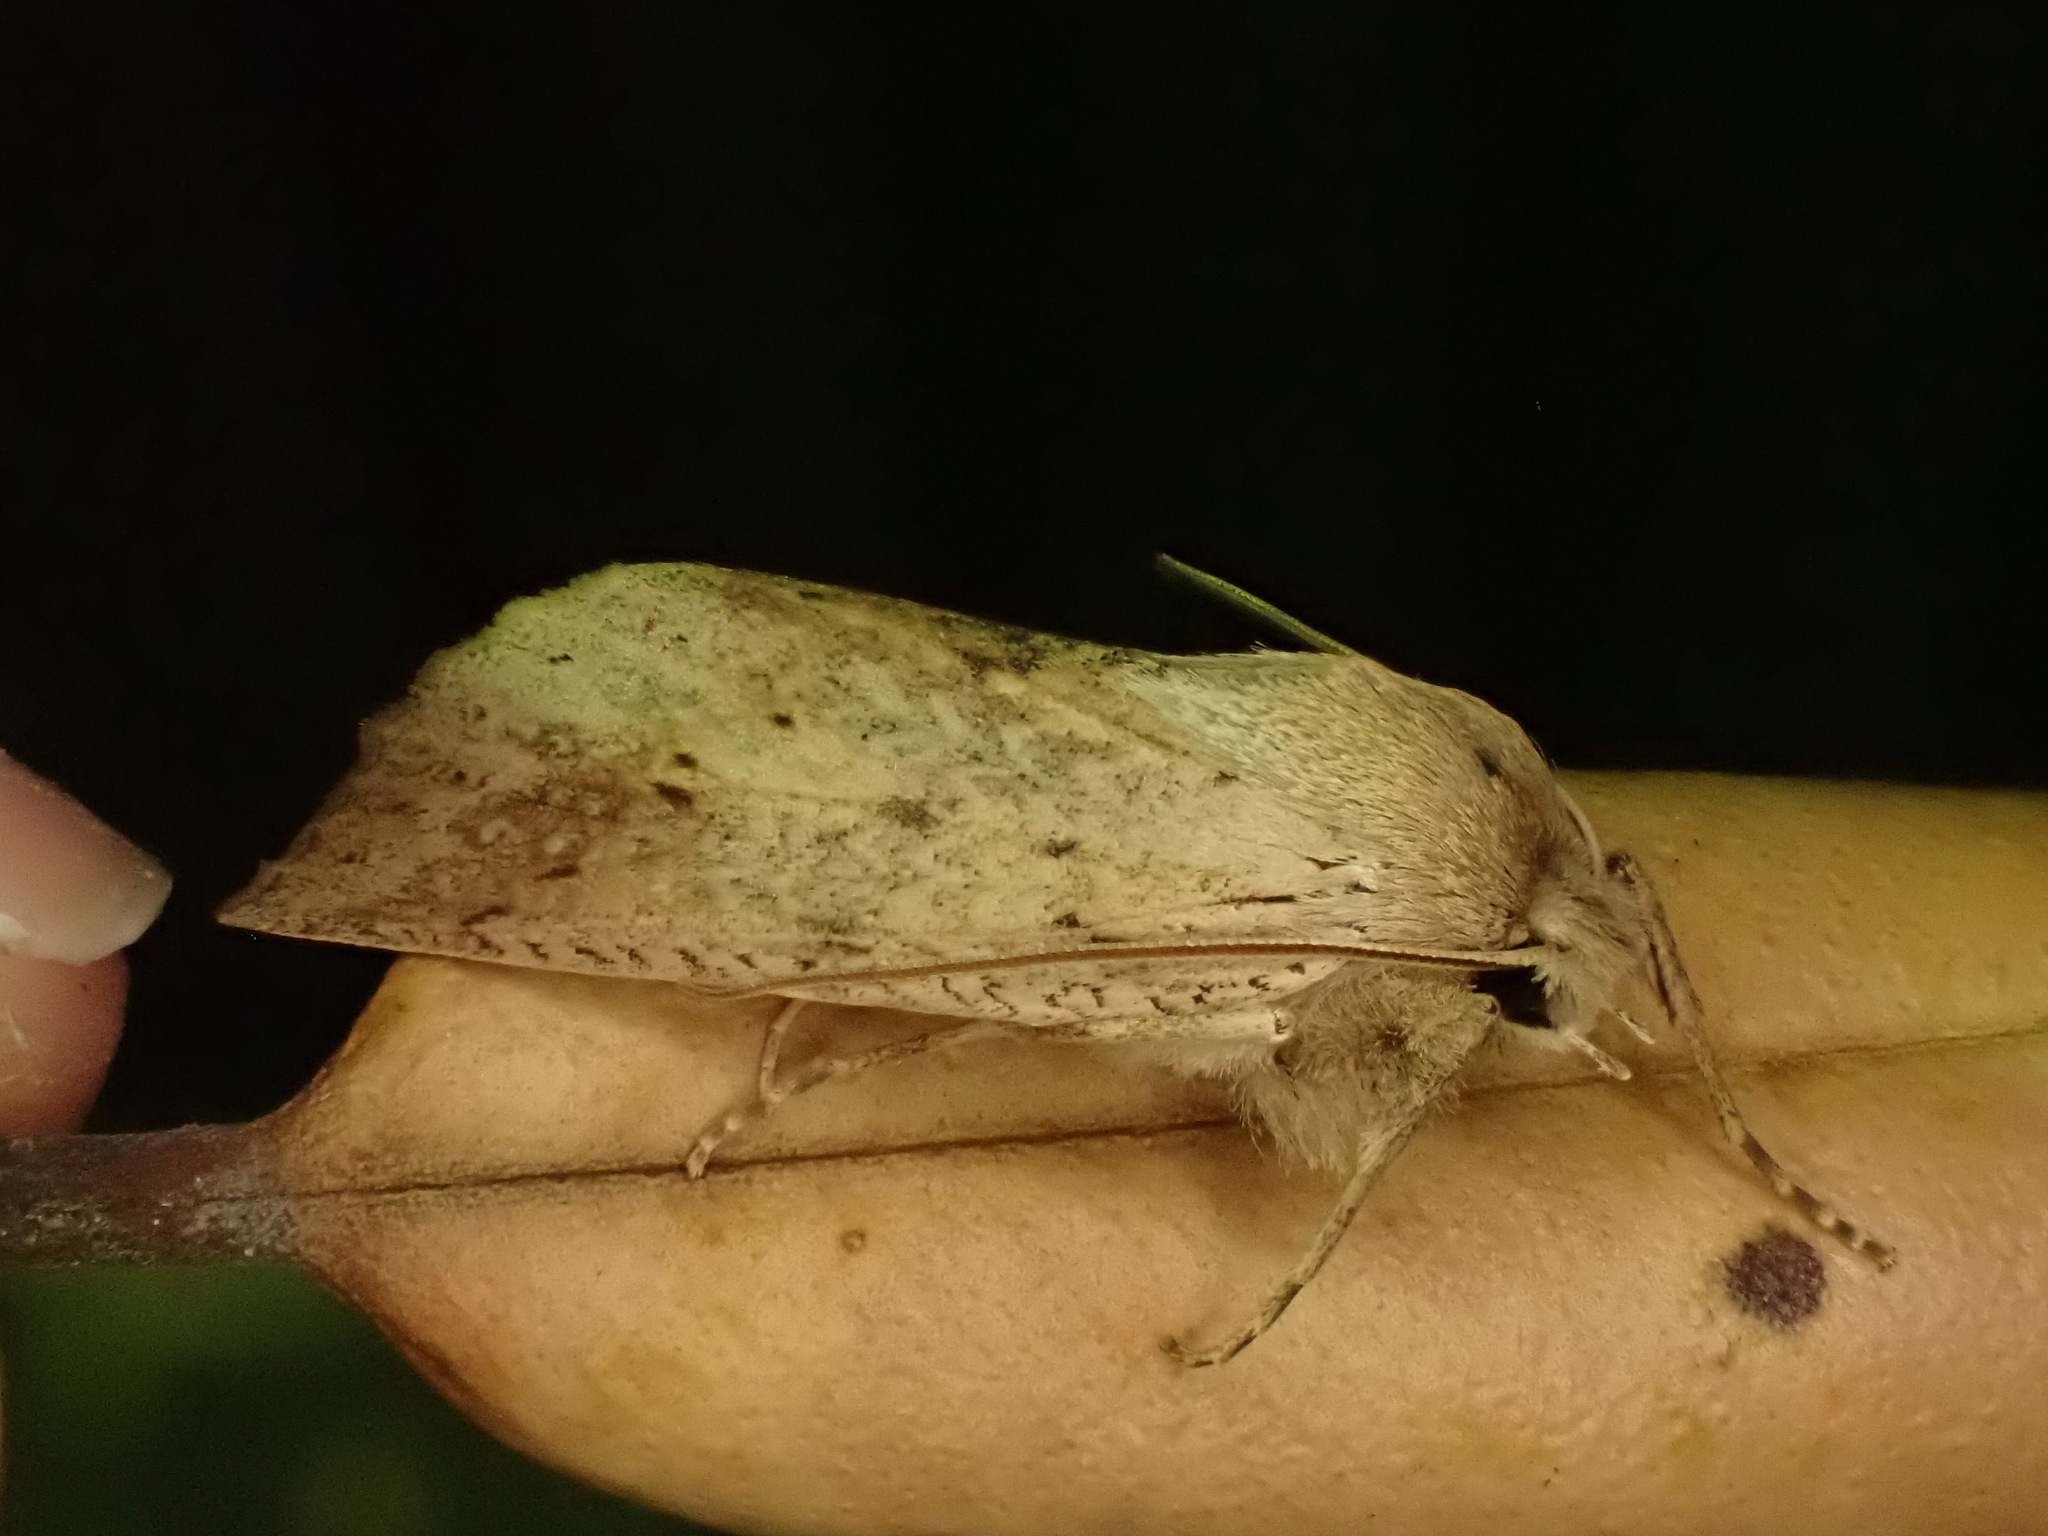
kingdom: Animalia
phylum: Arthropoda
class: Insecta
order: Lepidoptera
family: Geometridae
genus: Declana
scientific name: Declana leptomera
